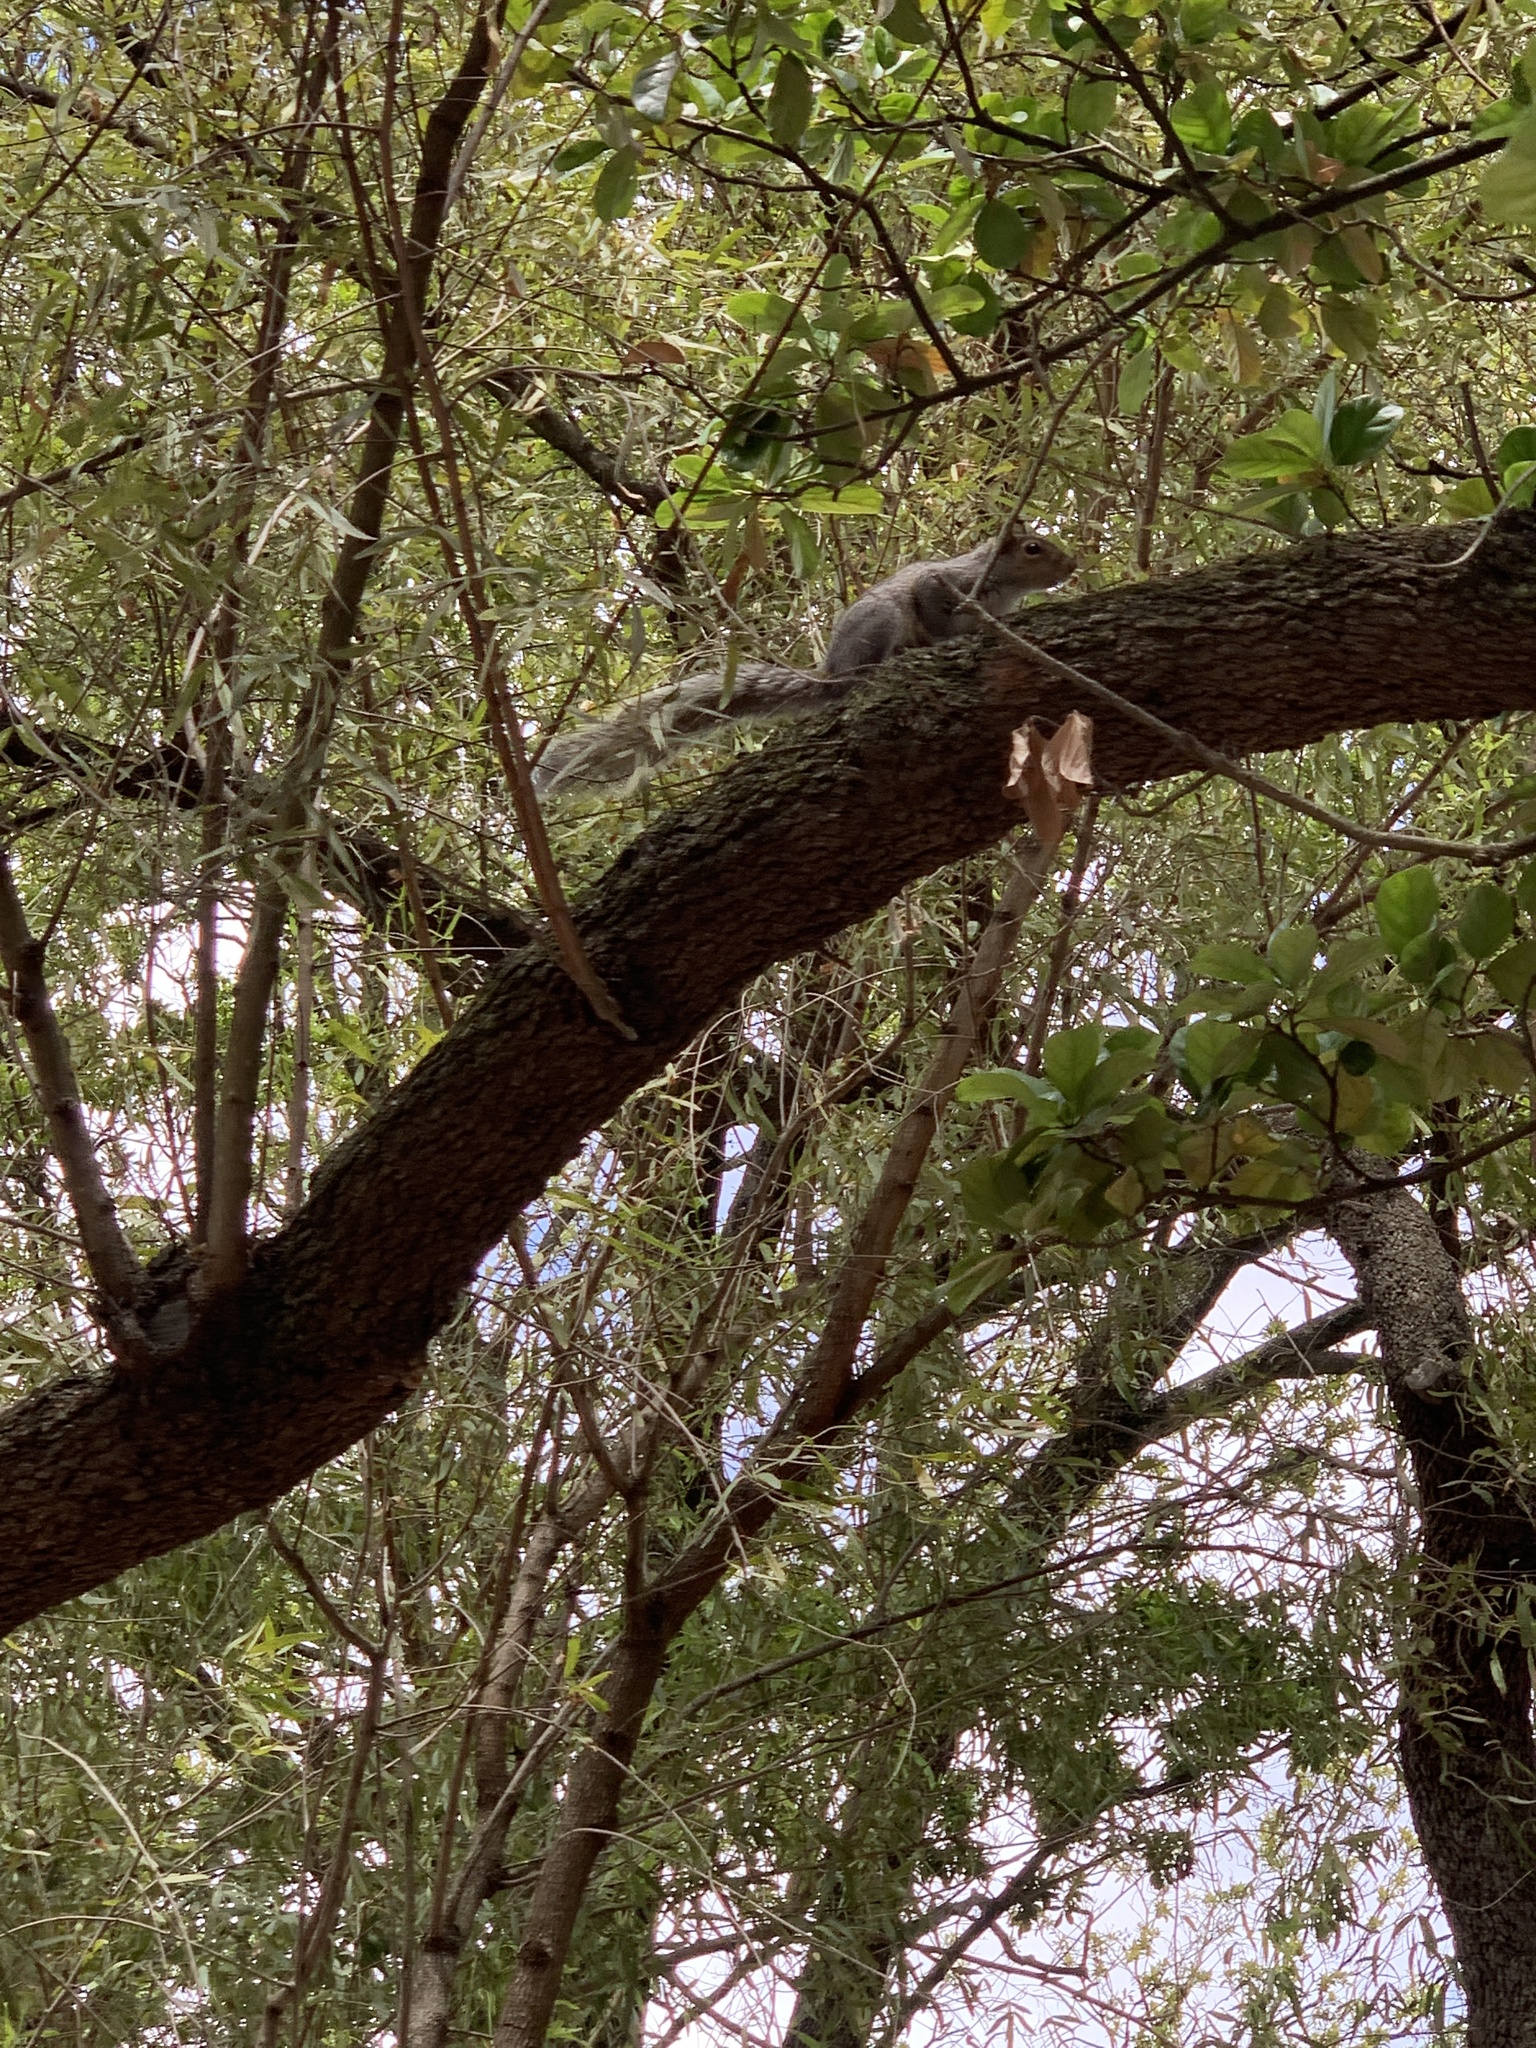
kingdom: Animalia
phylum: Chordata
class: Mammalia
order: Rodentia
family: Sciuridae
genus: Sciurus
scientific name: Sciurus carolinensis
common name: Eastern gray squirrel
